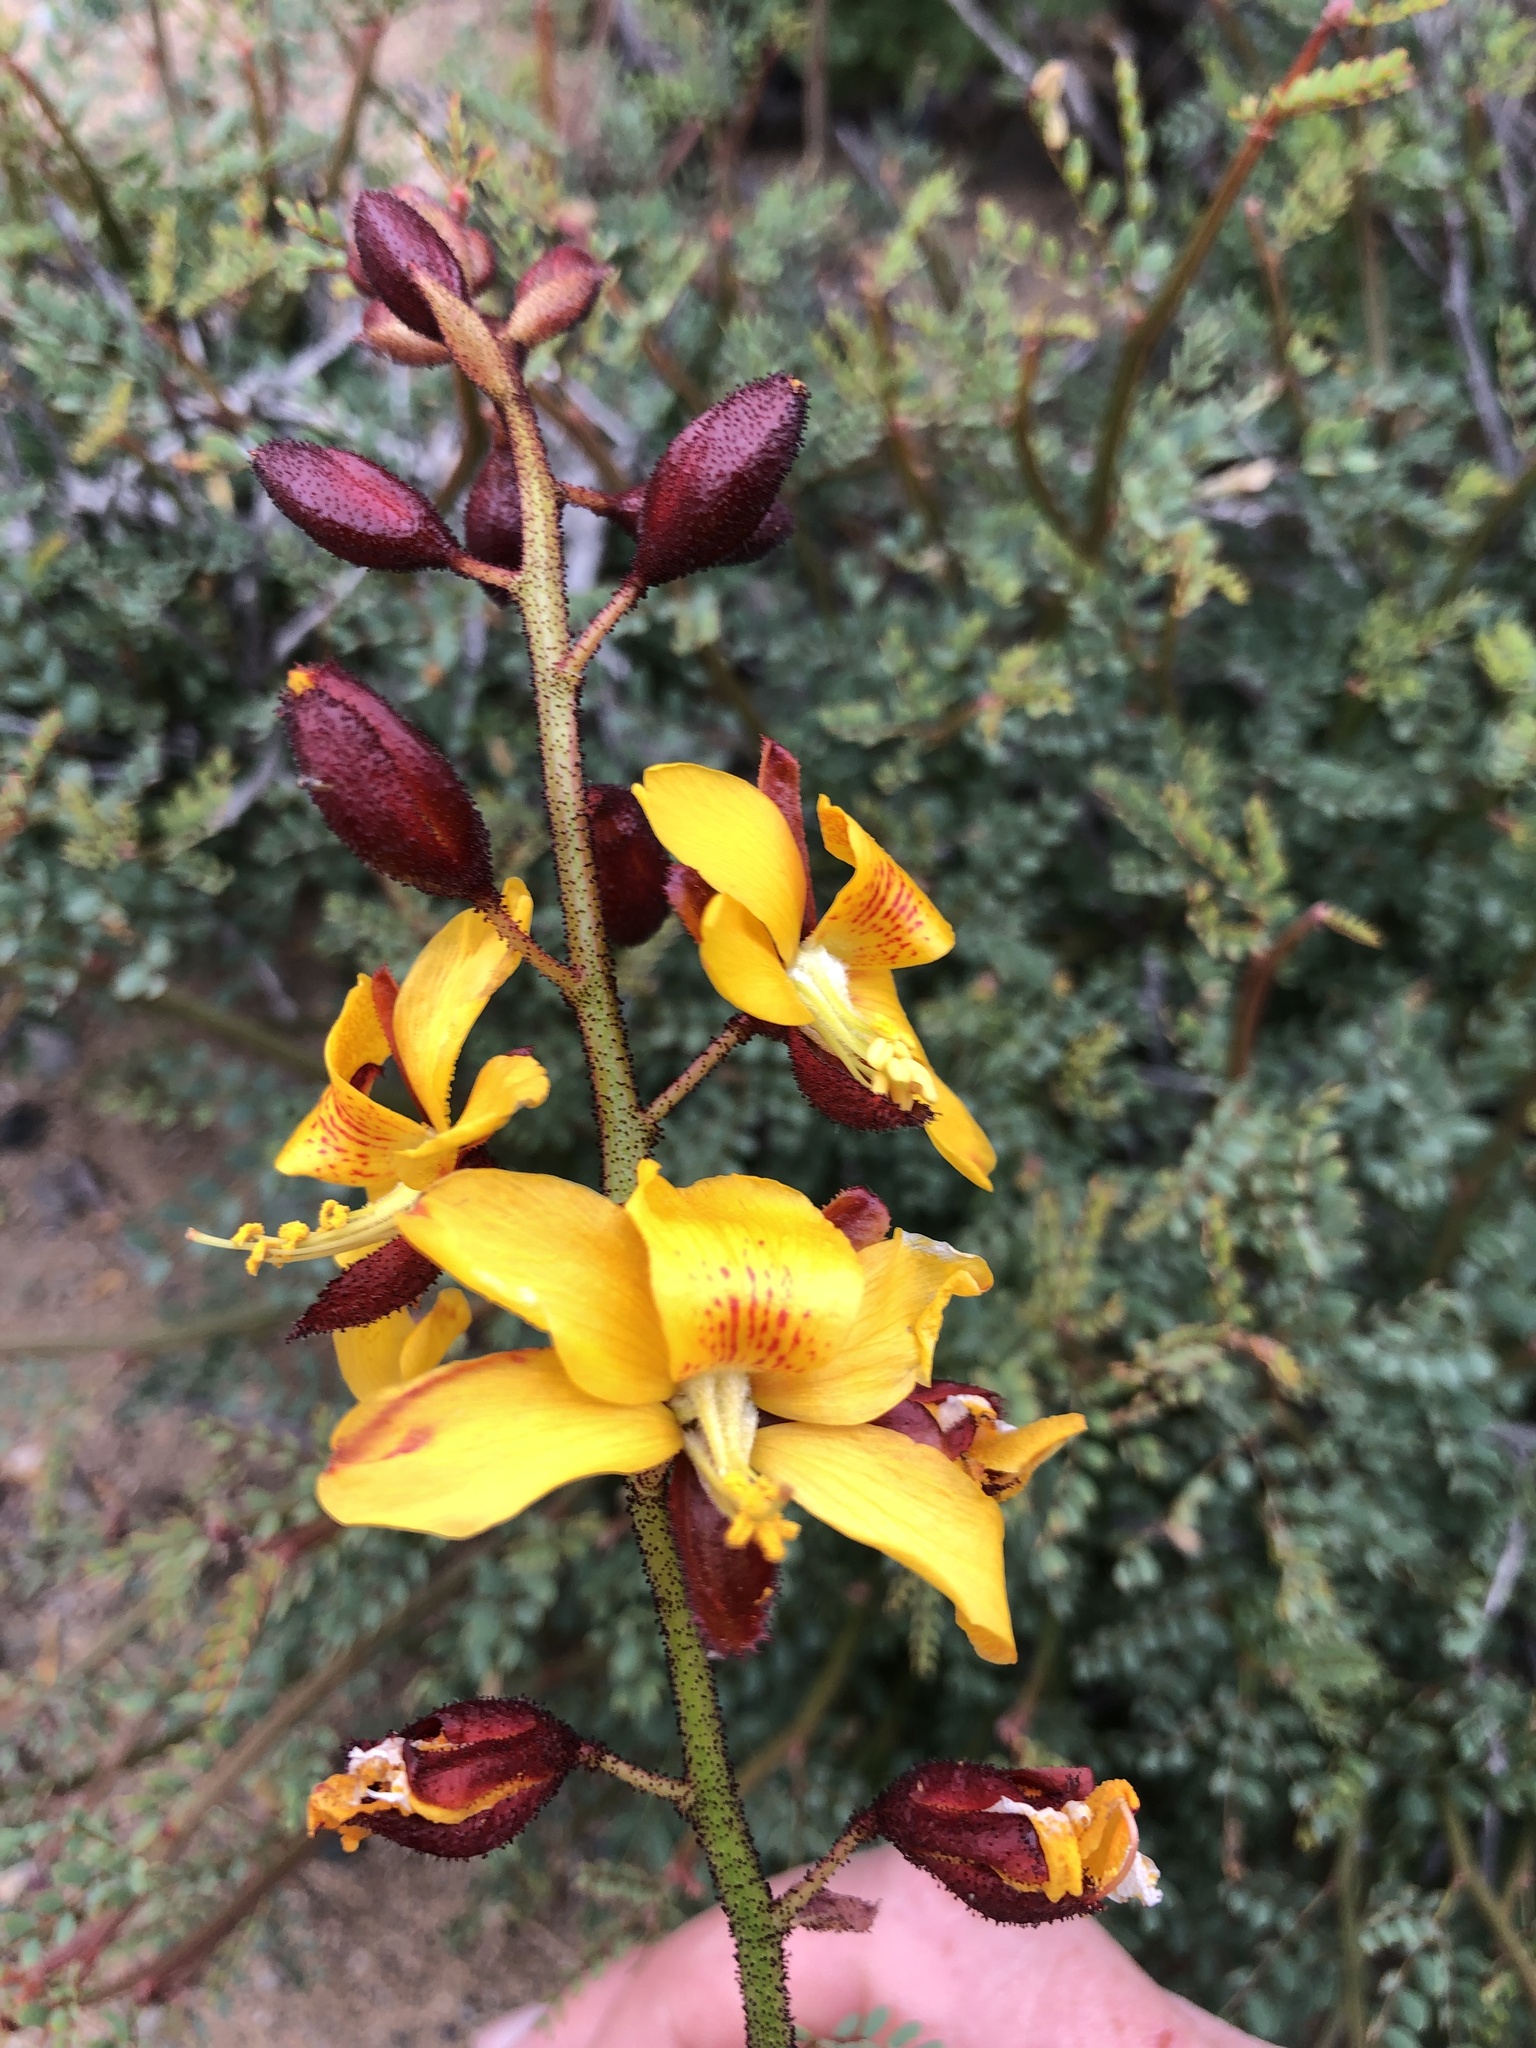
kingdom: Plantae
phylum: Tracheophyta
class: Magnoliopsida
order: Fabales
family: Fabaceae
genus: Erythrostemon
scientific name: Erythrostemon angulatus
